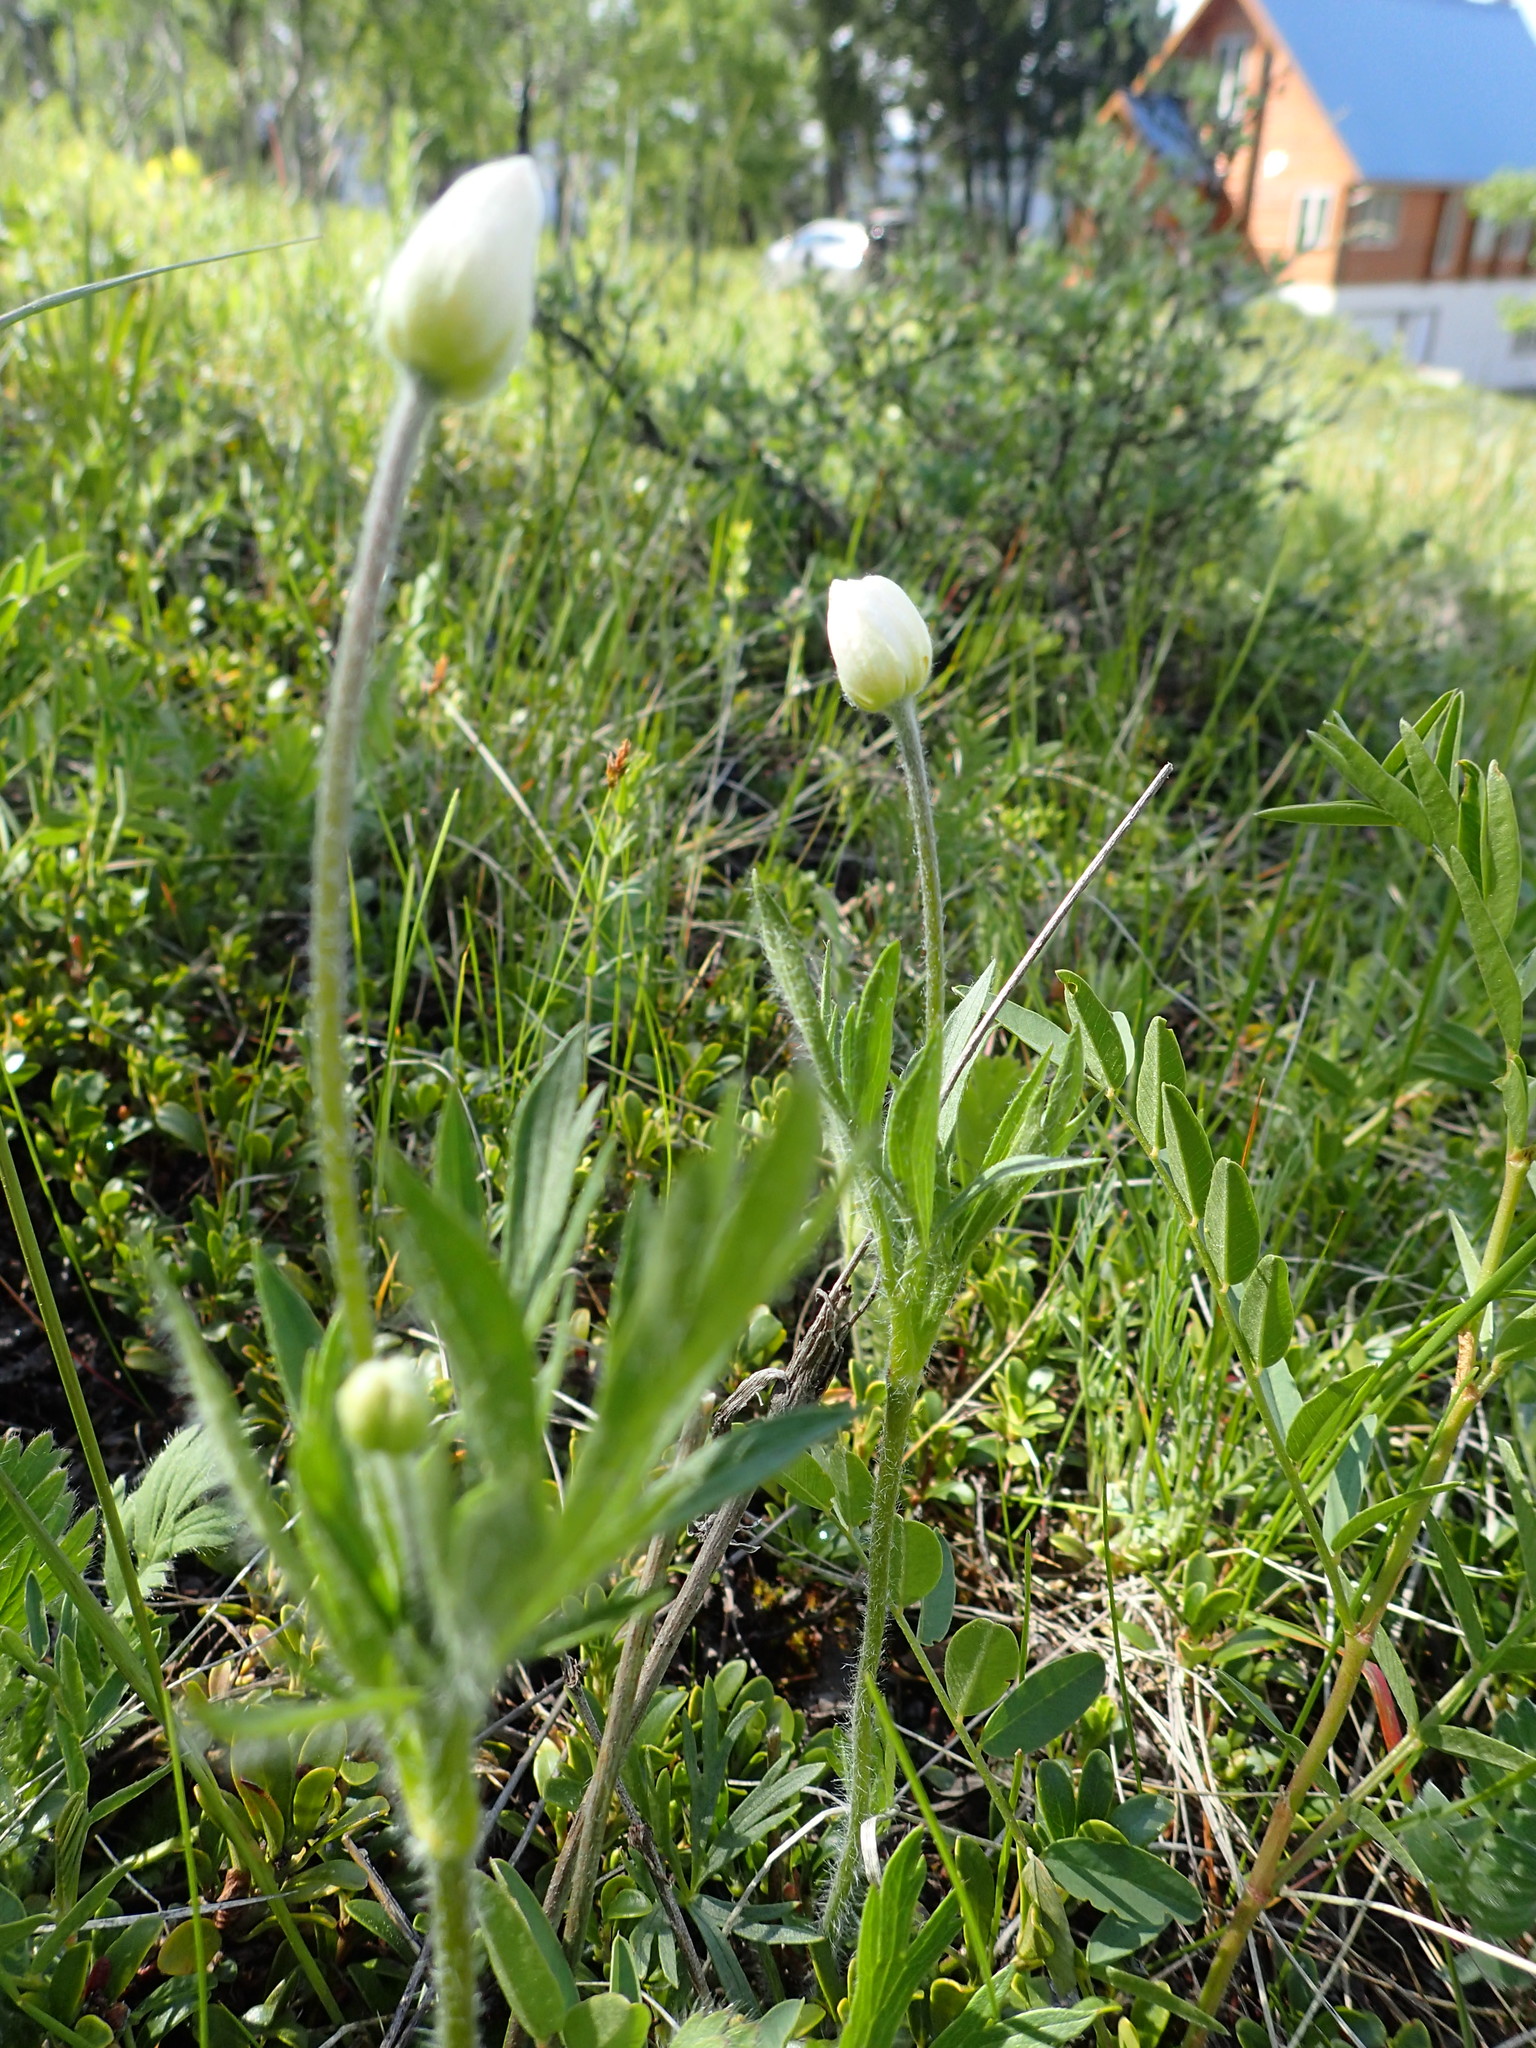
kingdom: Plantae
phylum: Tracheophyta
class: Magnoliopsida
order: Ranunculales
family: Ranunculaceae
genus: Anemone
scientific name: Anemone multifida
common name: Bird's-foot anemone
